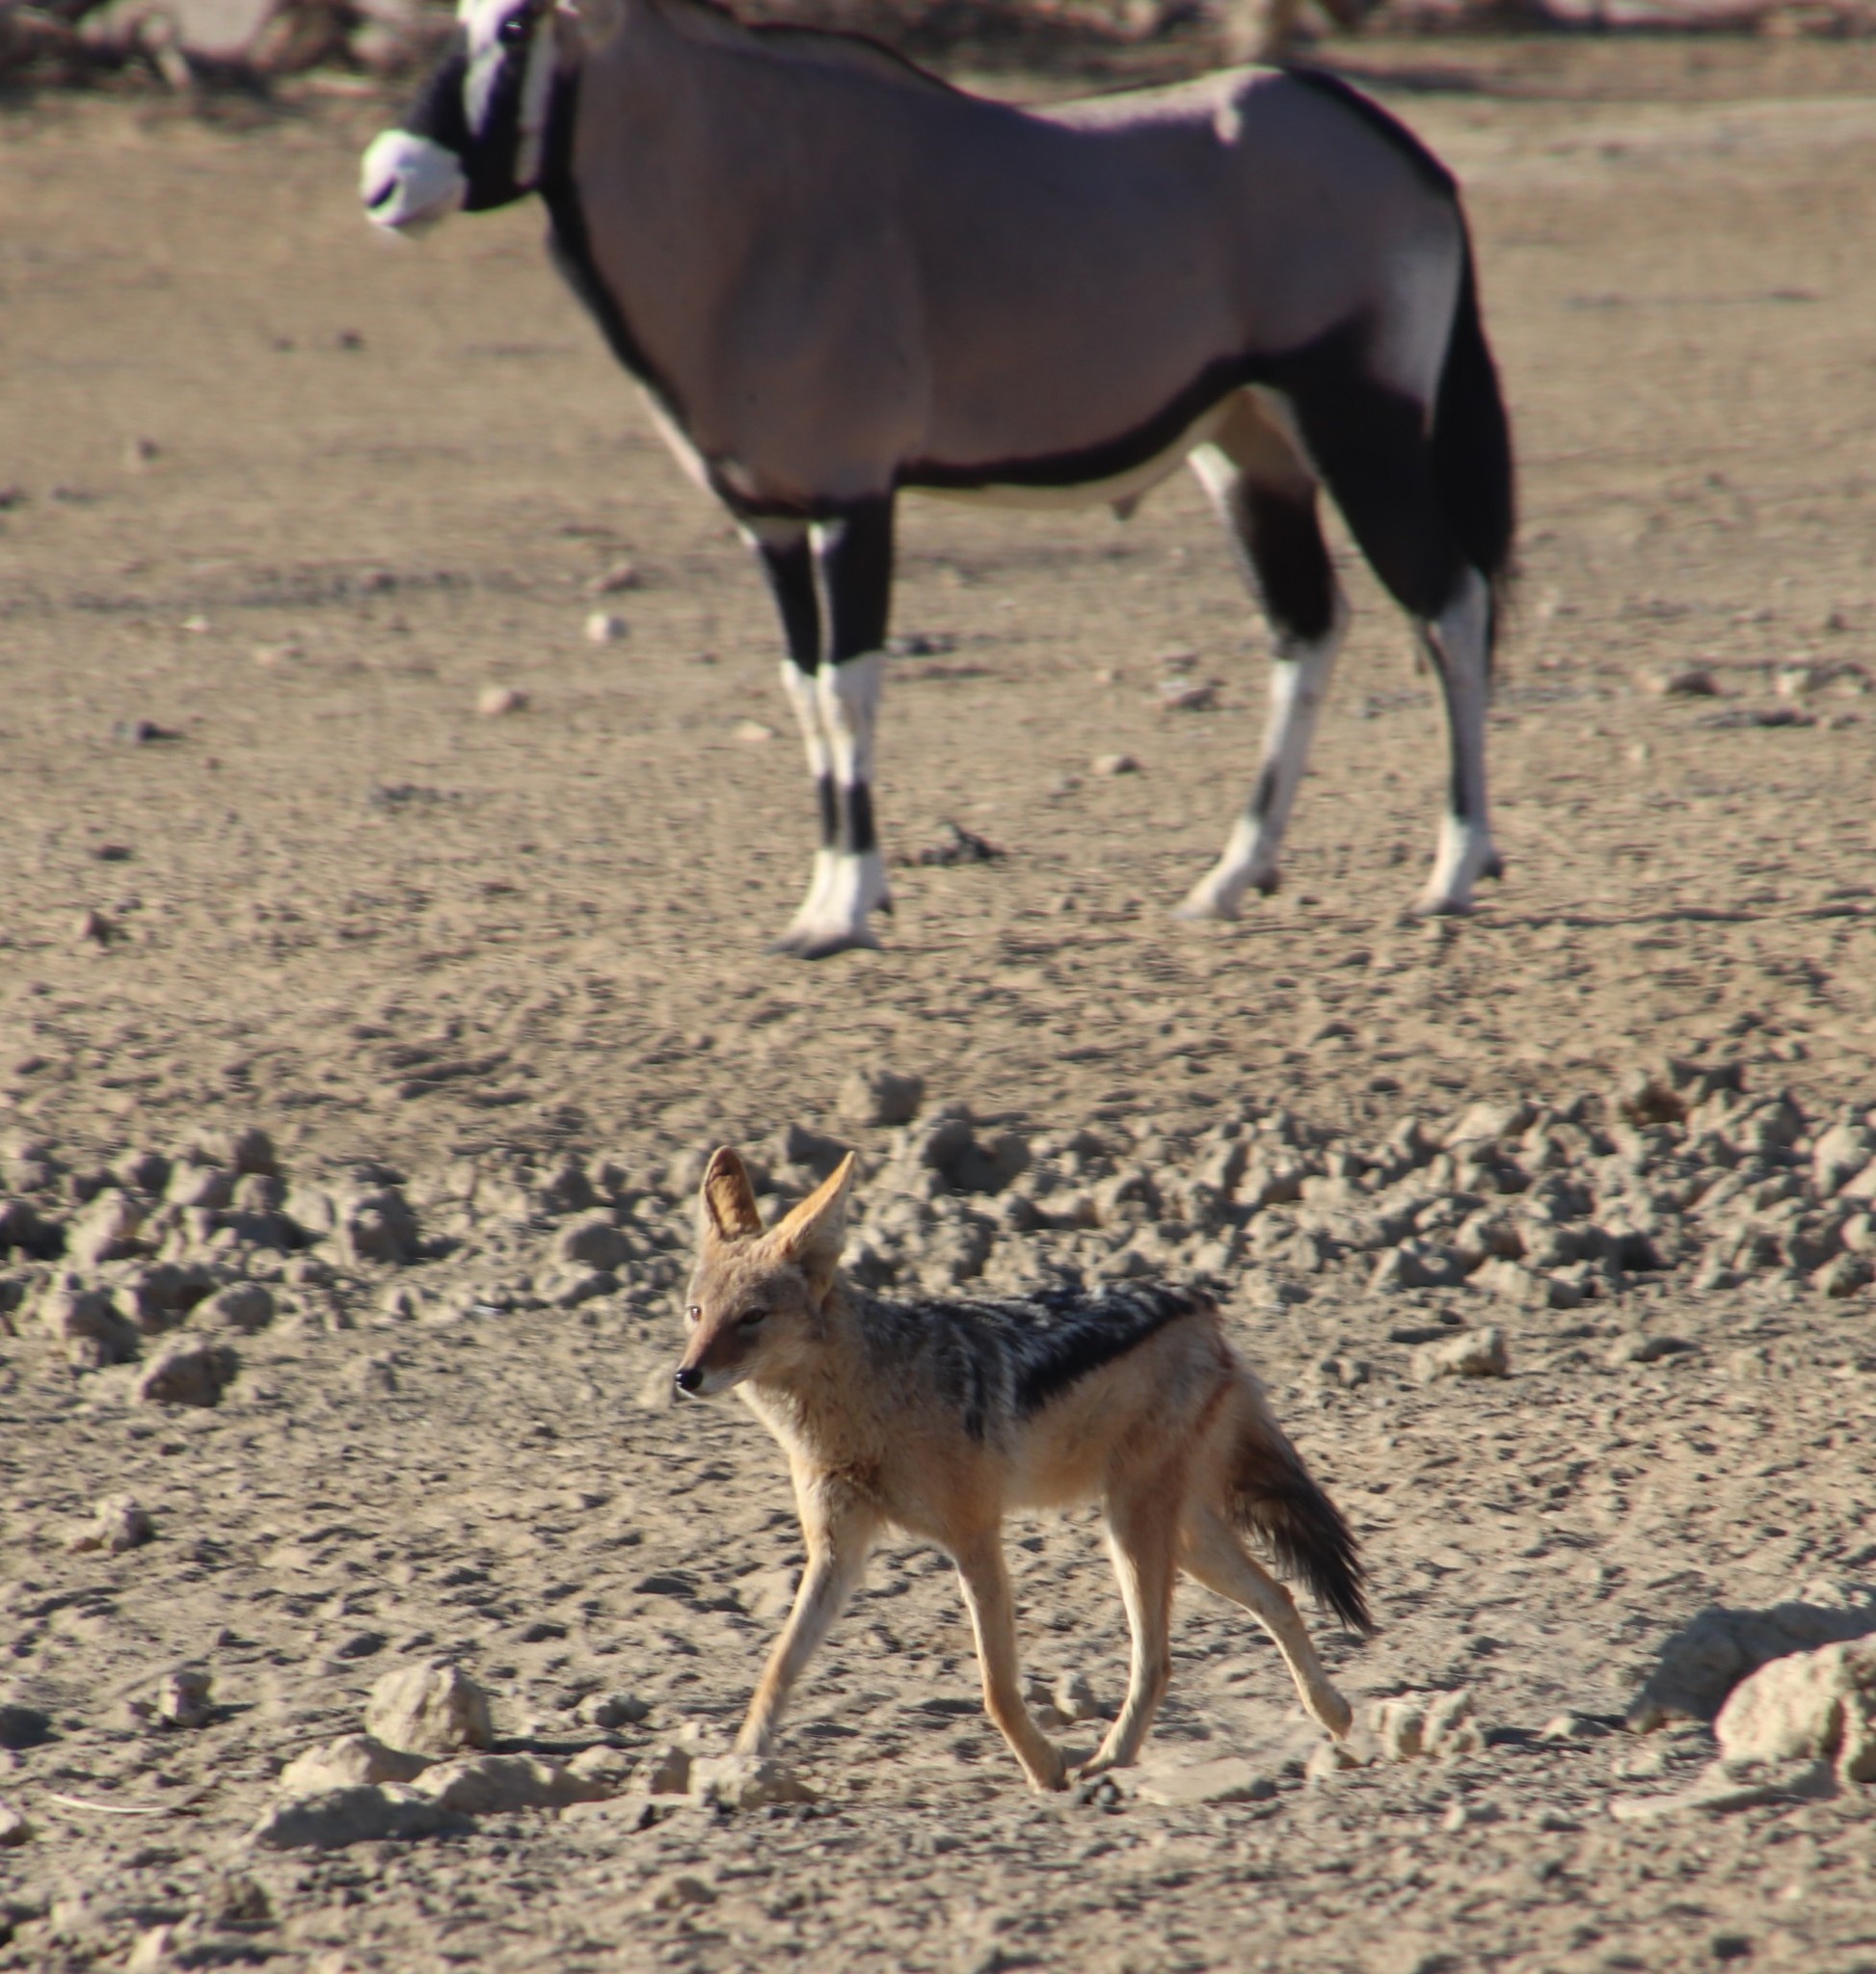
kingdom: Animalia
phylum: Chordata
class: Mammalia
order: Carnivora
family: Canidae
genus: Lupulella
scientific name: Lupulella
